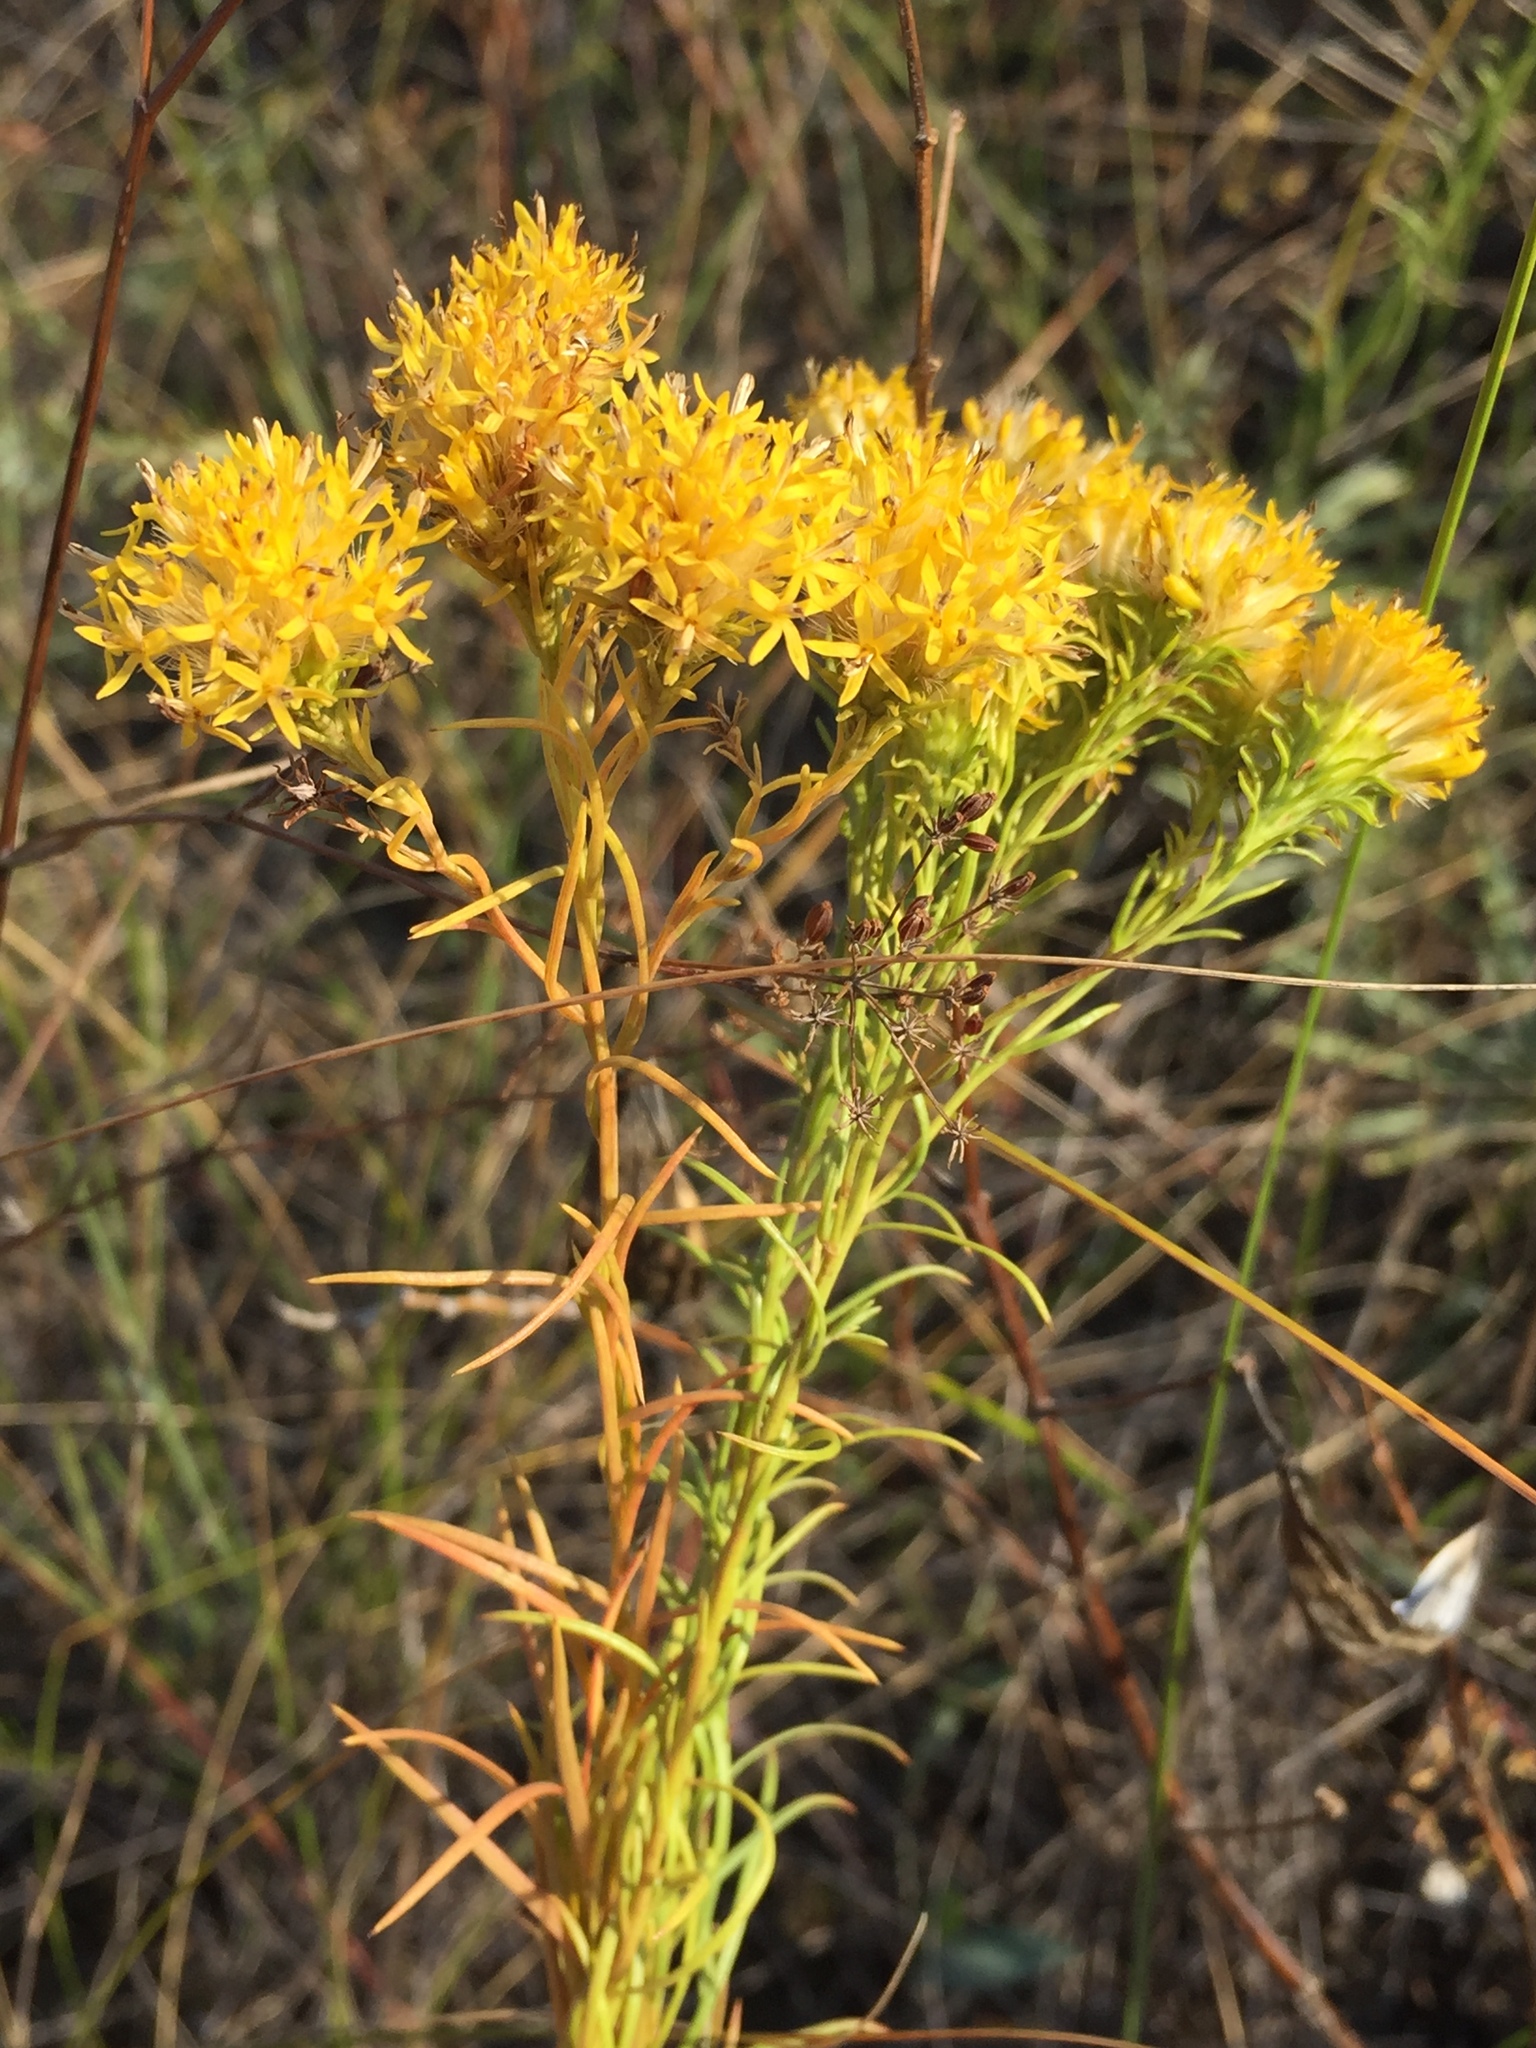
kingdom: Plantae
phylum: Tracheophyta
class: Magnoliopsida
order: Asterales
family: Asteraceae
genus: Galatella
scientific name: Galatella linosyris
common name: Goldilocks aster
